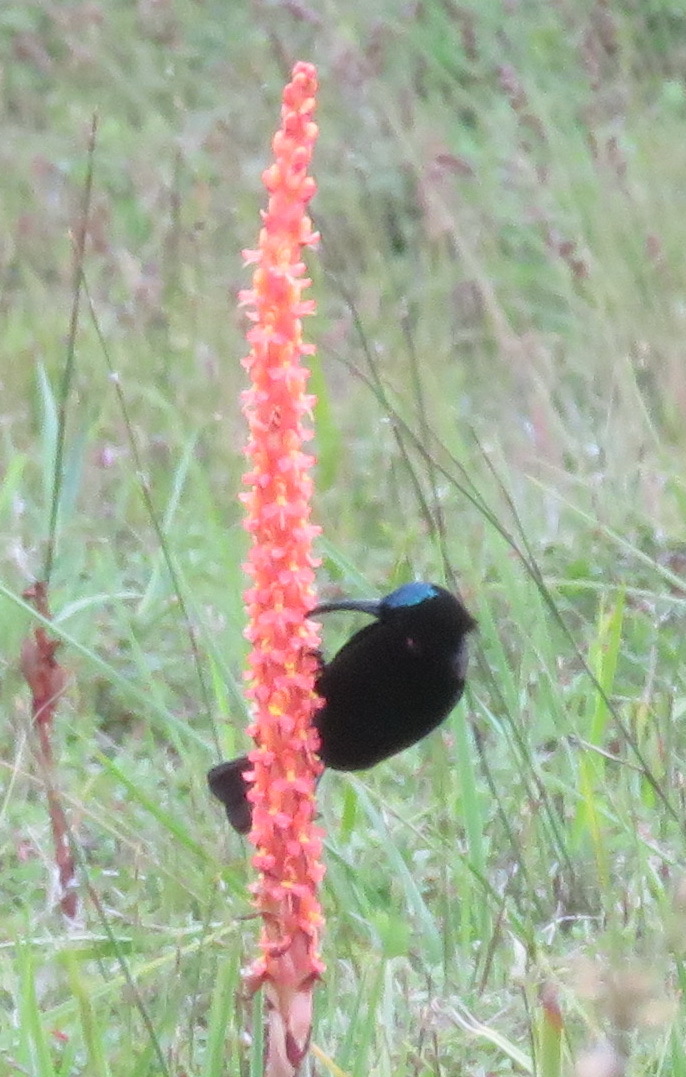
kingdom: Animalia
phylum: Chordata
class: Aves
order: Passeriformes
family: Nectariniidae
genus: Chalcomitra
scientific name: Chalcomitra amethystina
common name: Amethyst sunbird
